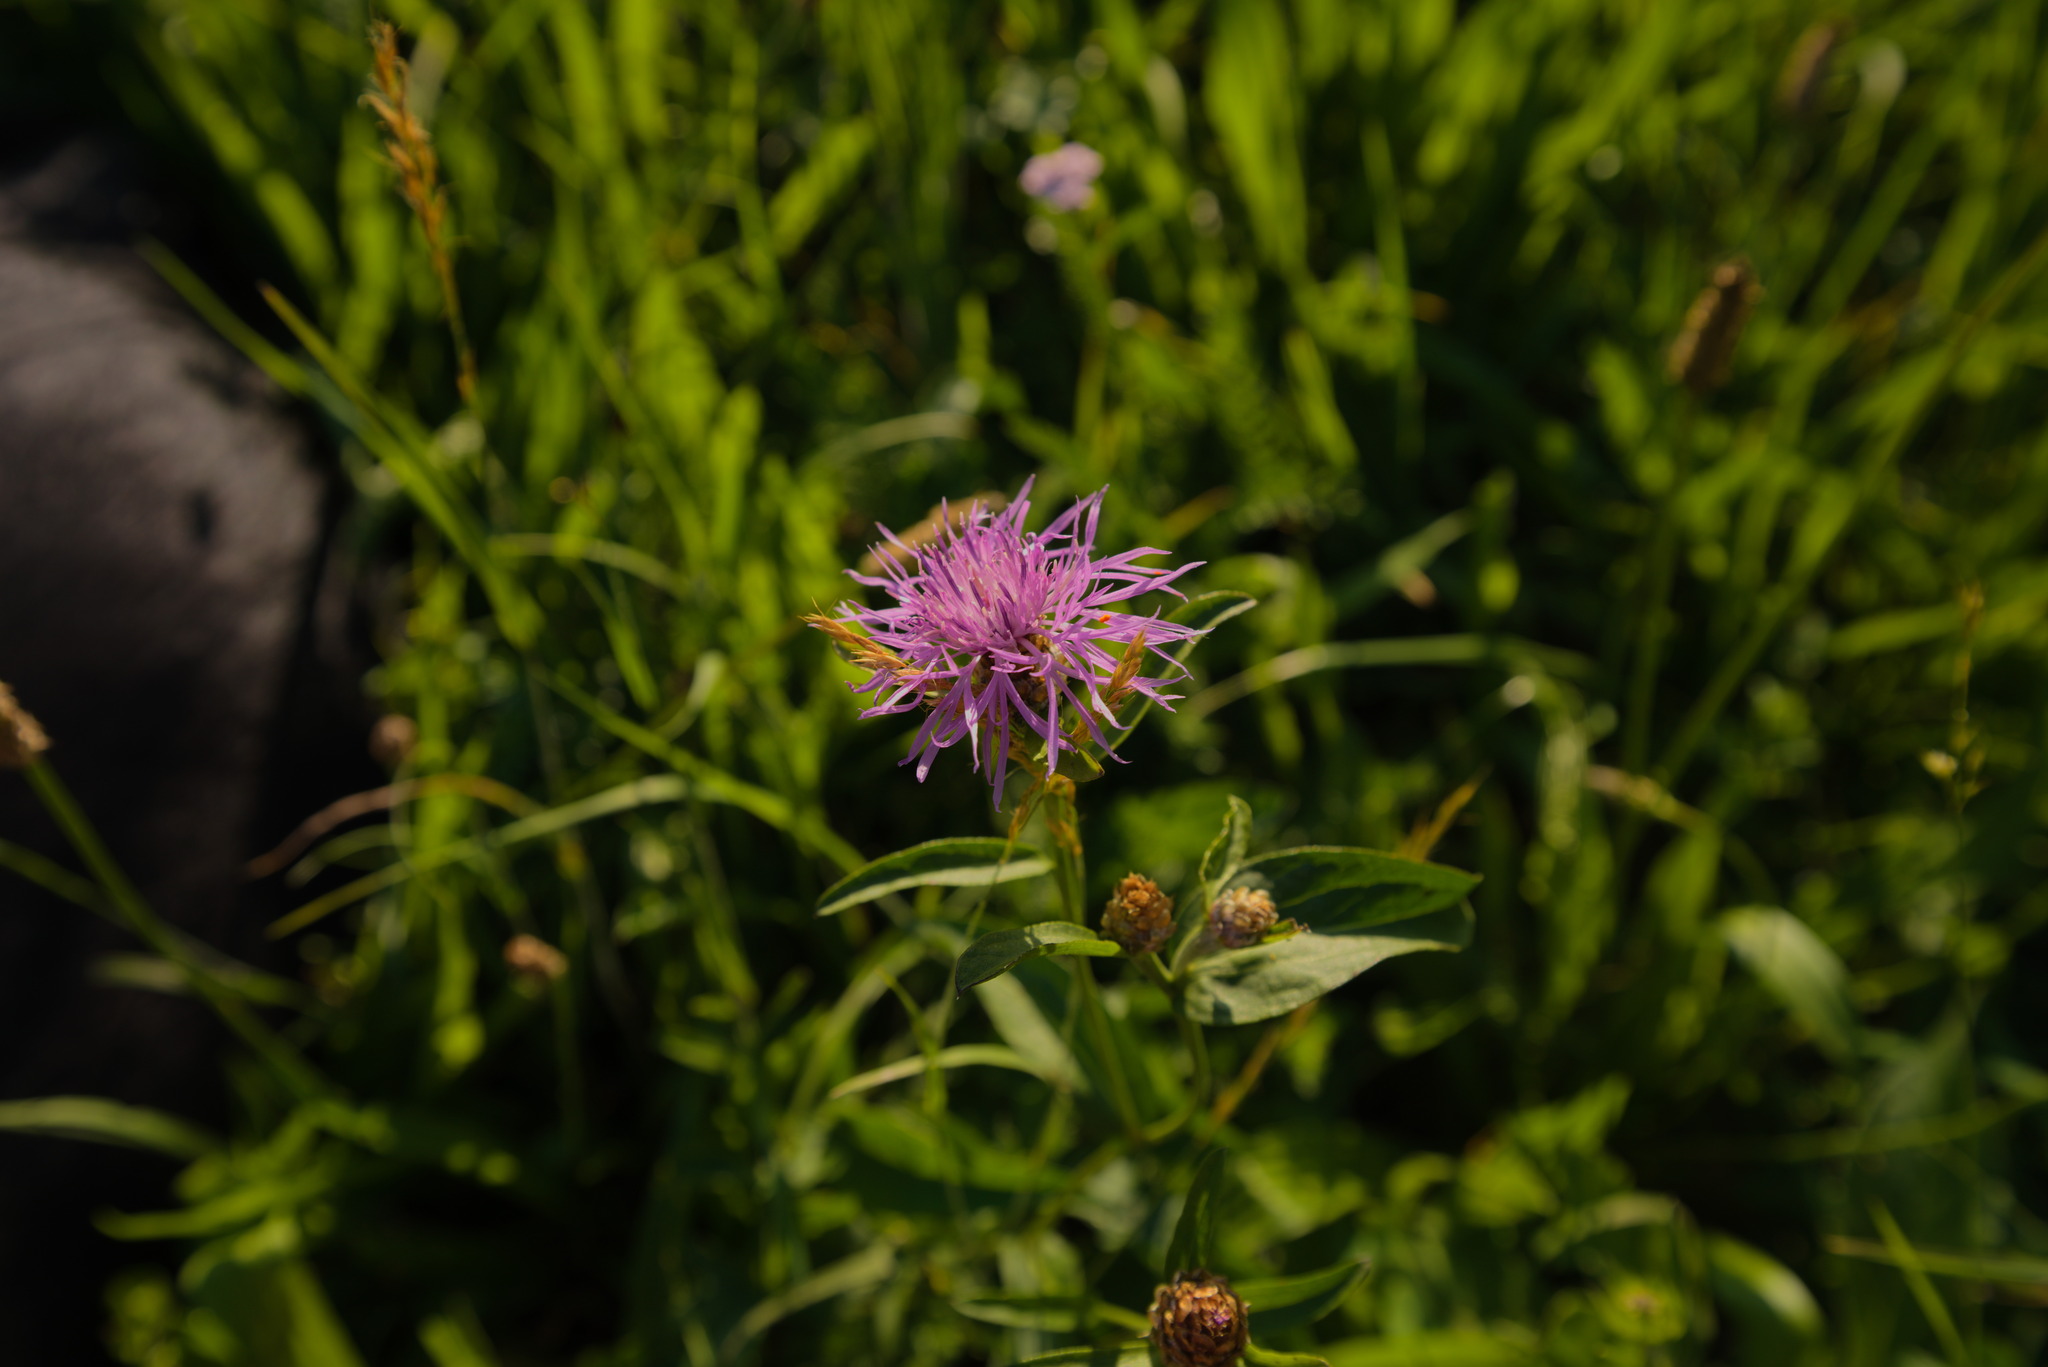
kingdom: Plantae
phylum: Tracheophyta
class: Magnoliopsida
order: Asterales
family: Asteraceae
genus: Centaurea
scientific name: Centaurea jacea
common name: Brown knapweed
